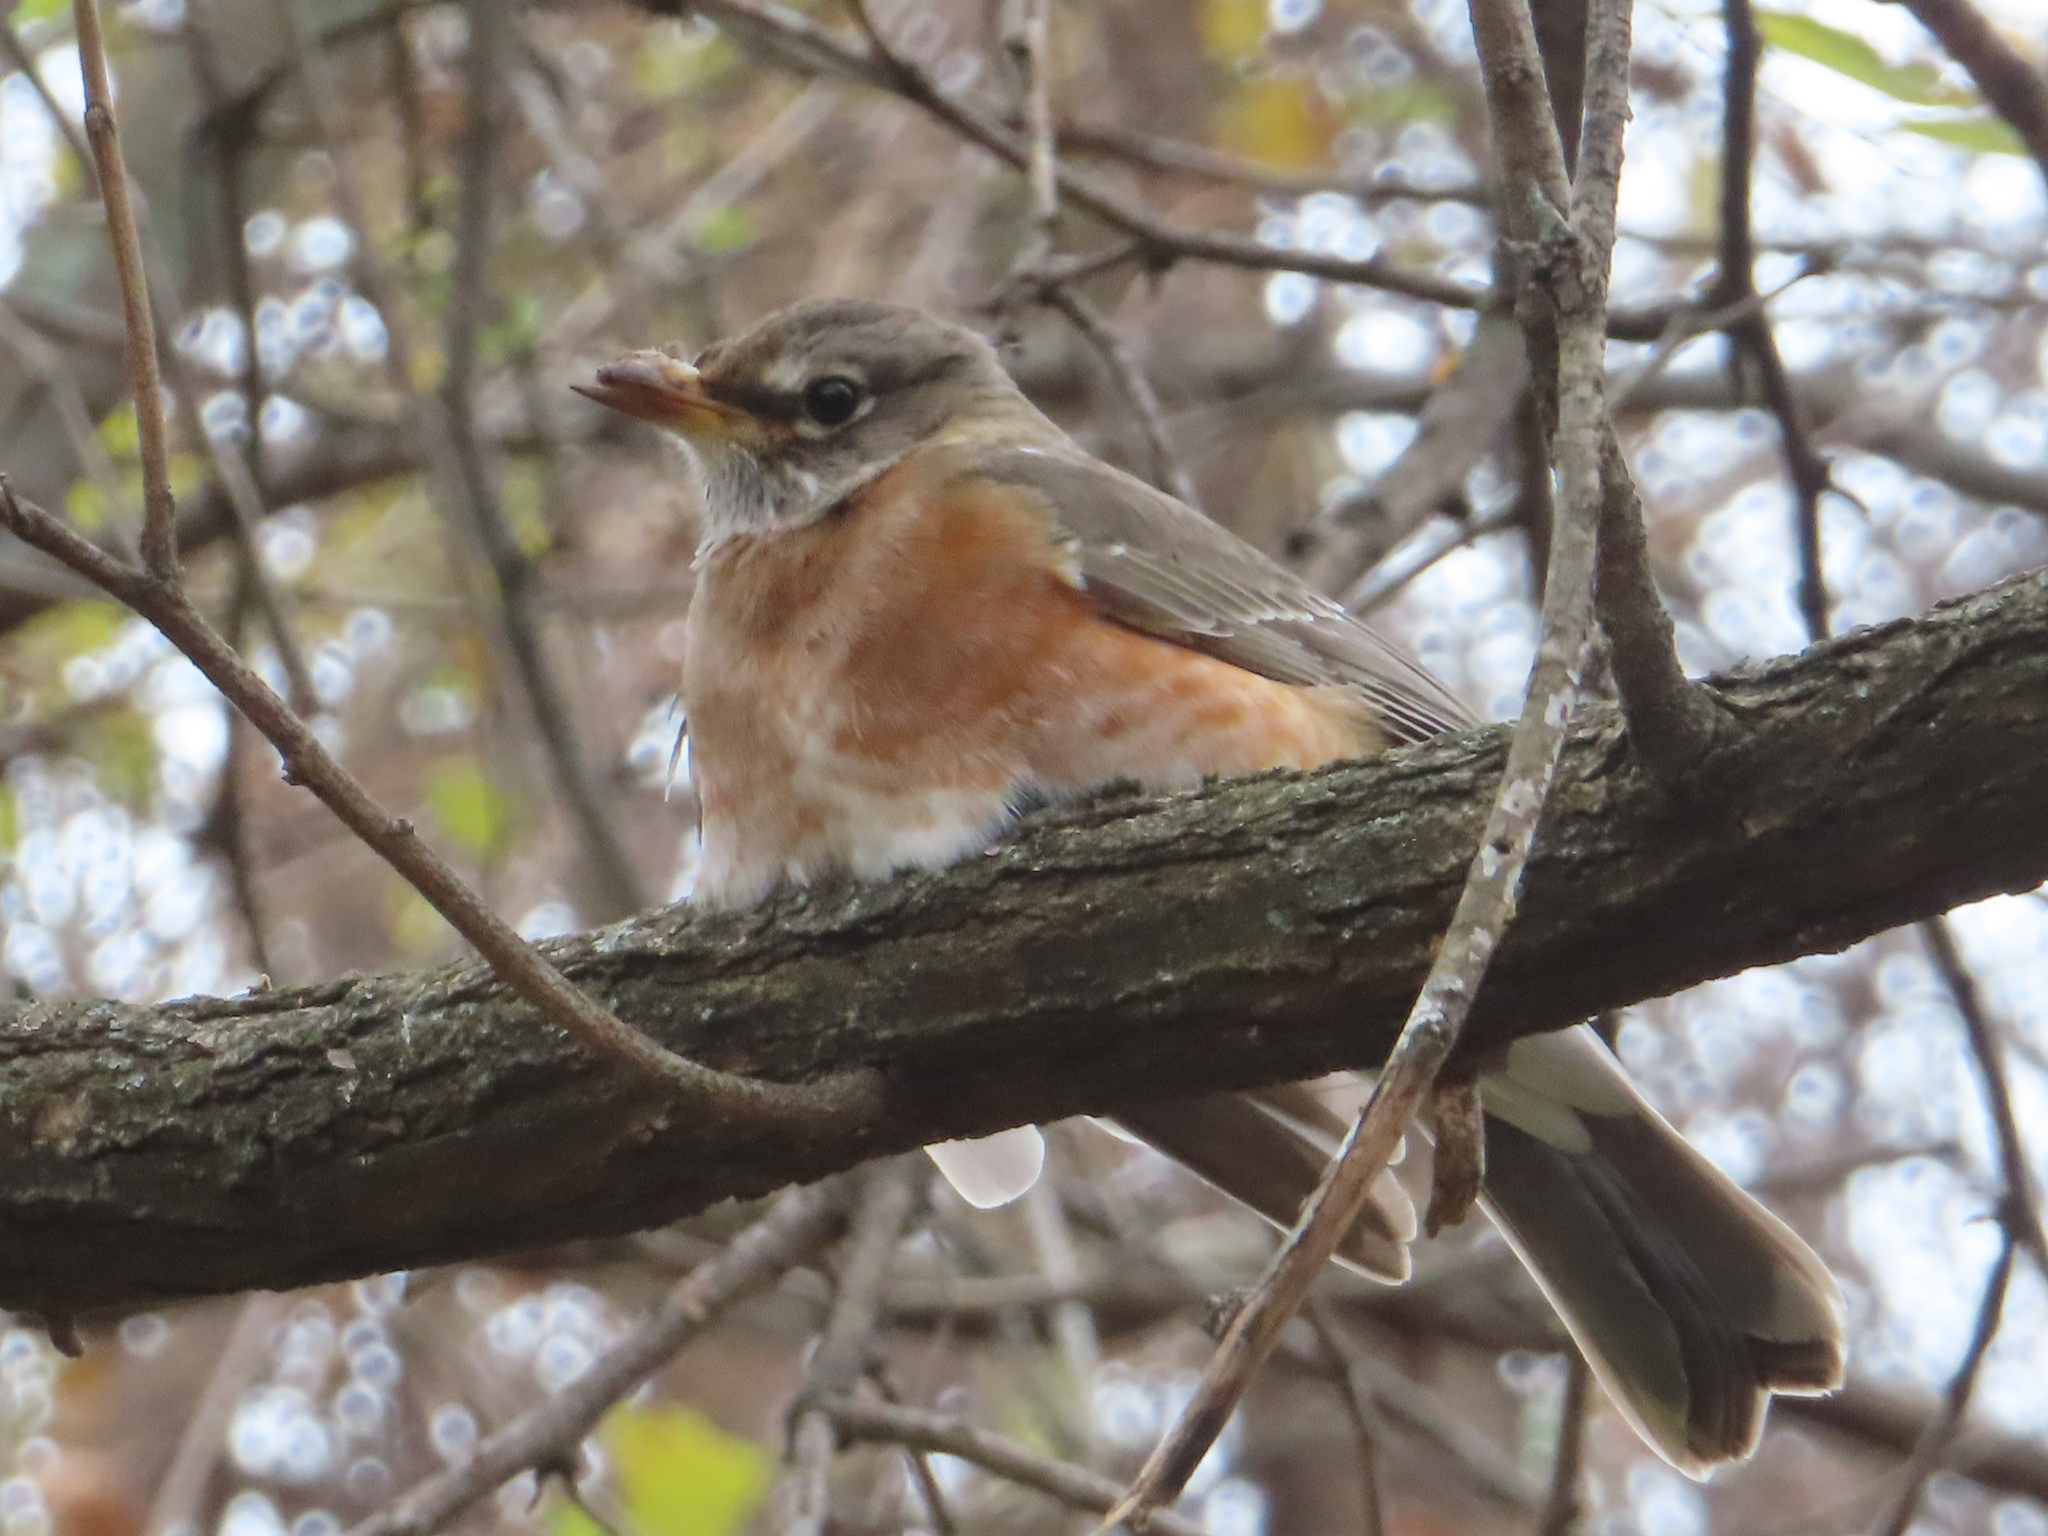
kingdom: Animalia
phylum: Chordata
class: Aves
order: Passeriformes
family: Turdidae
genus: Turdus
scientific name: Turdus migratorius
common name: American robin
